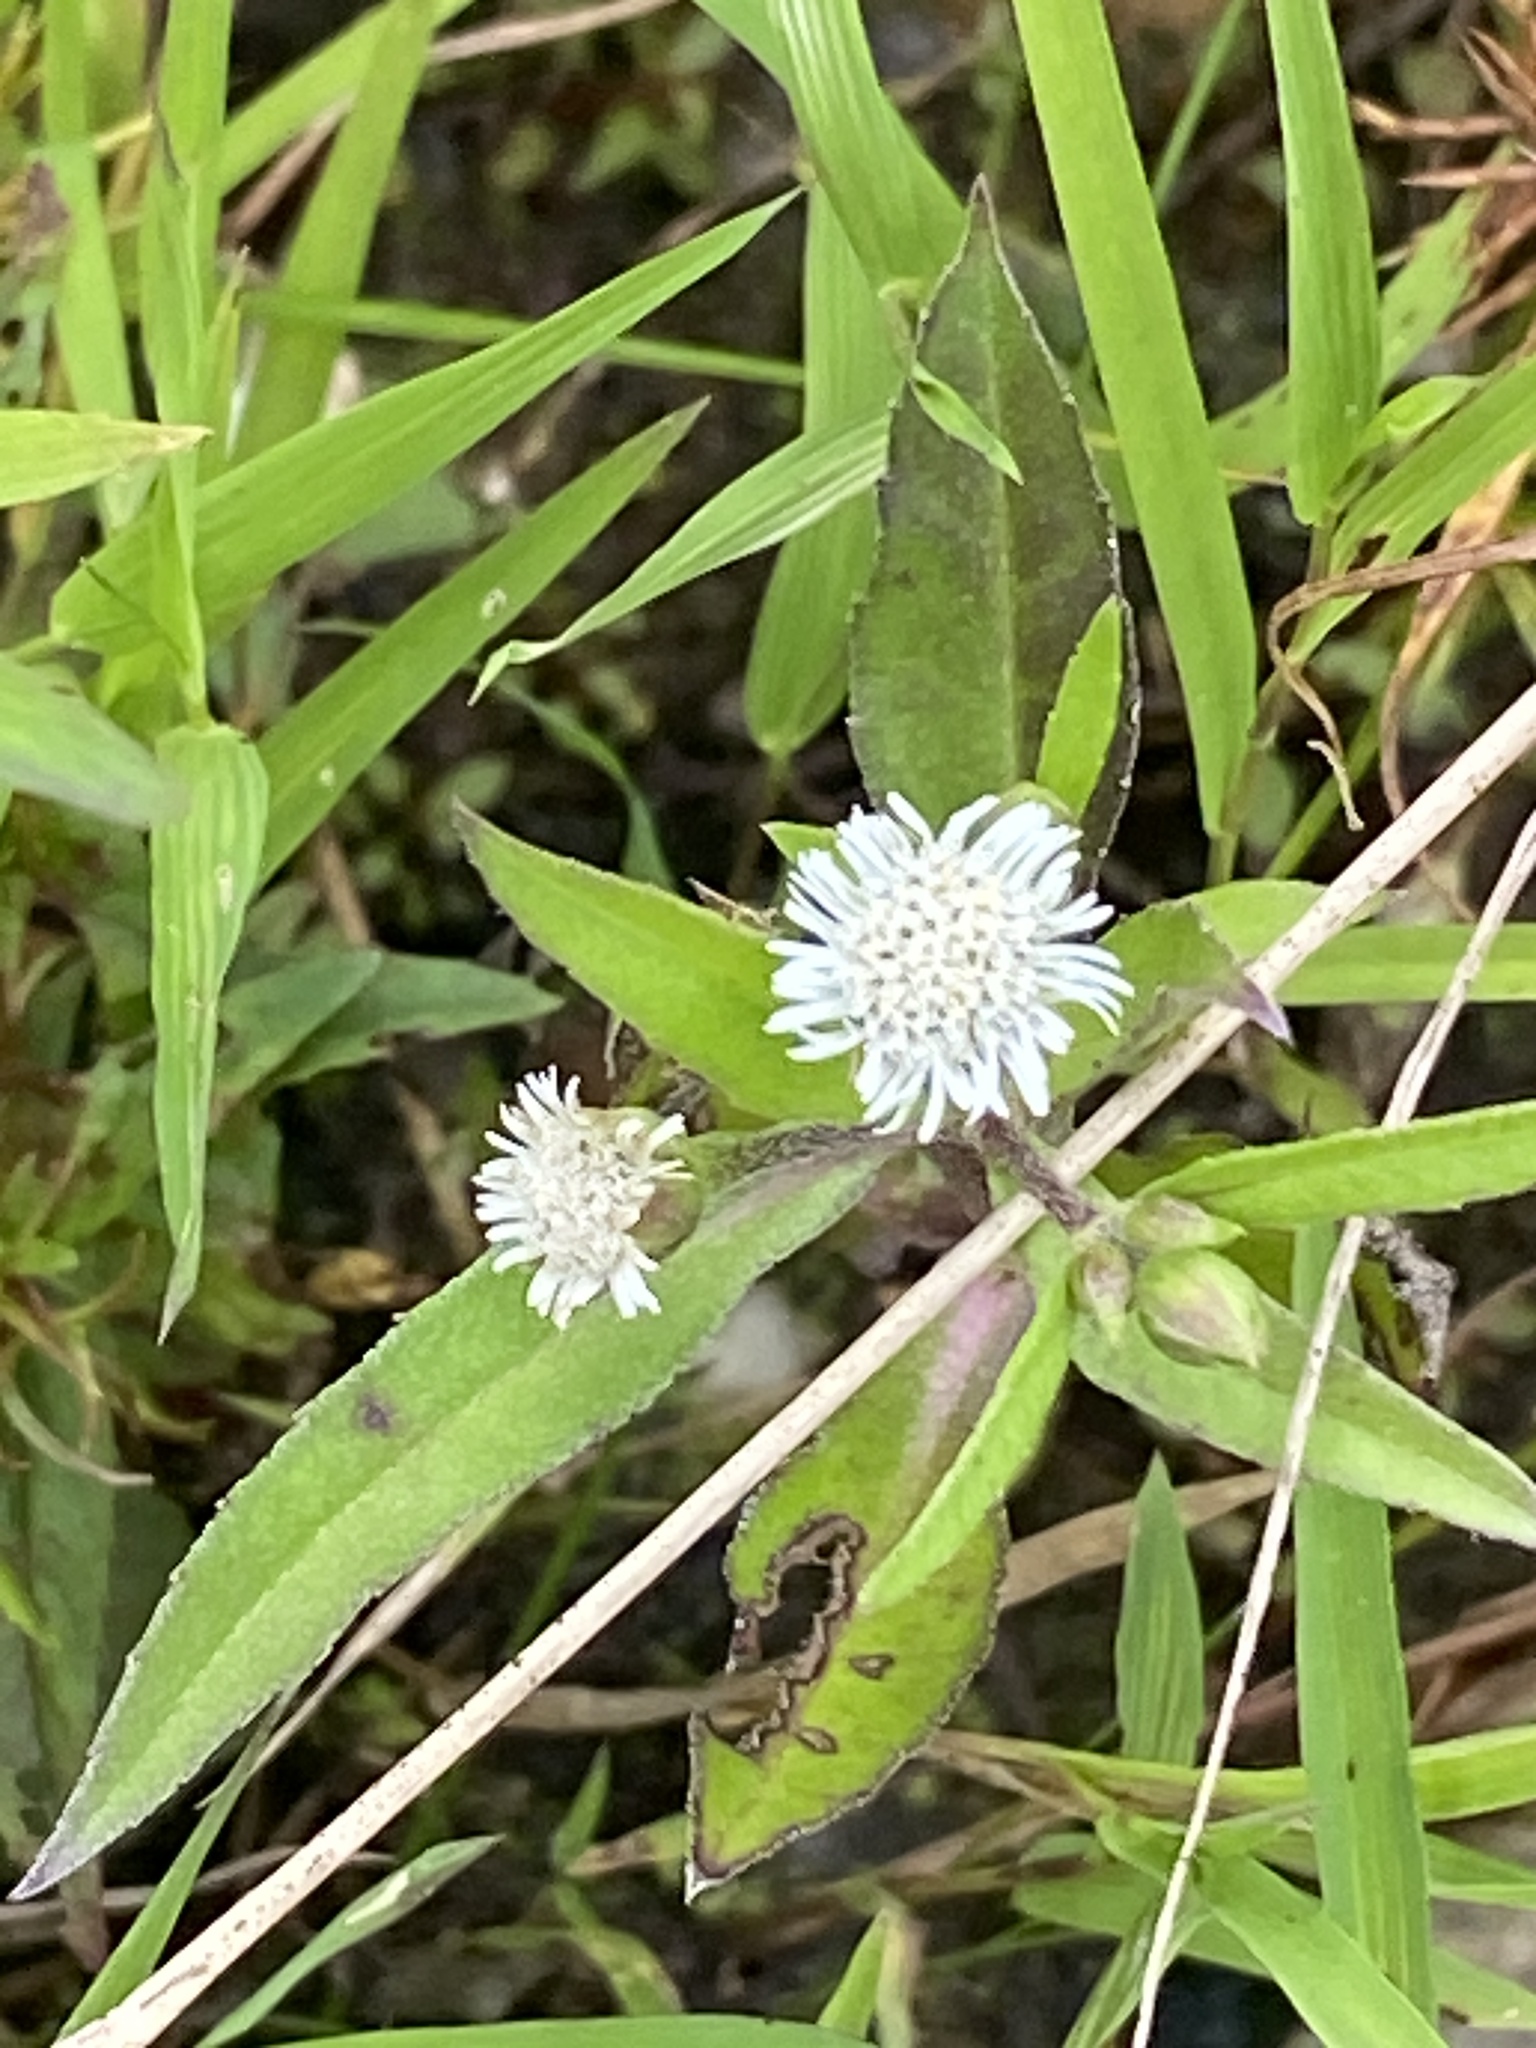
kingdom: Plantae
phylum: Tracheophyta
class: Magnoliopsida
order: Asterales
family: Asteraceae
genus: Eclipta
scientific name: Eclipta prostrata
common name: False daisy
